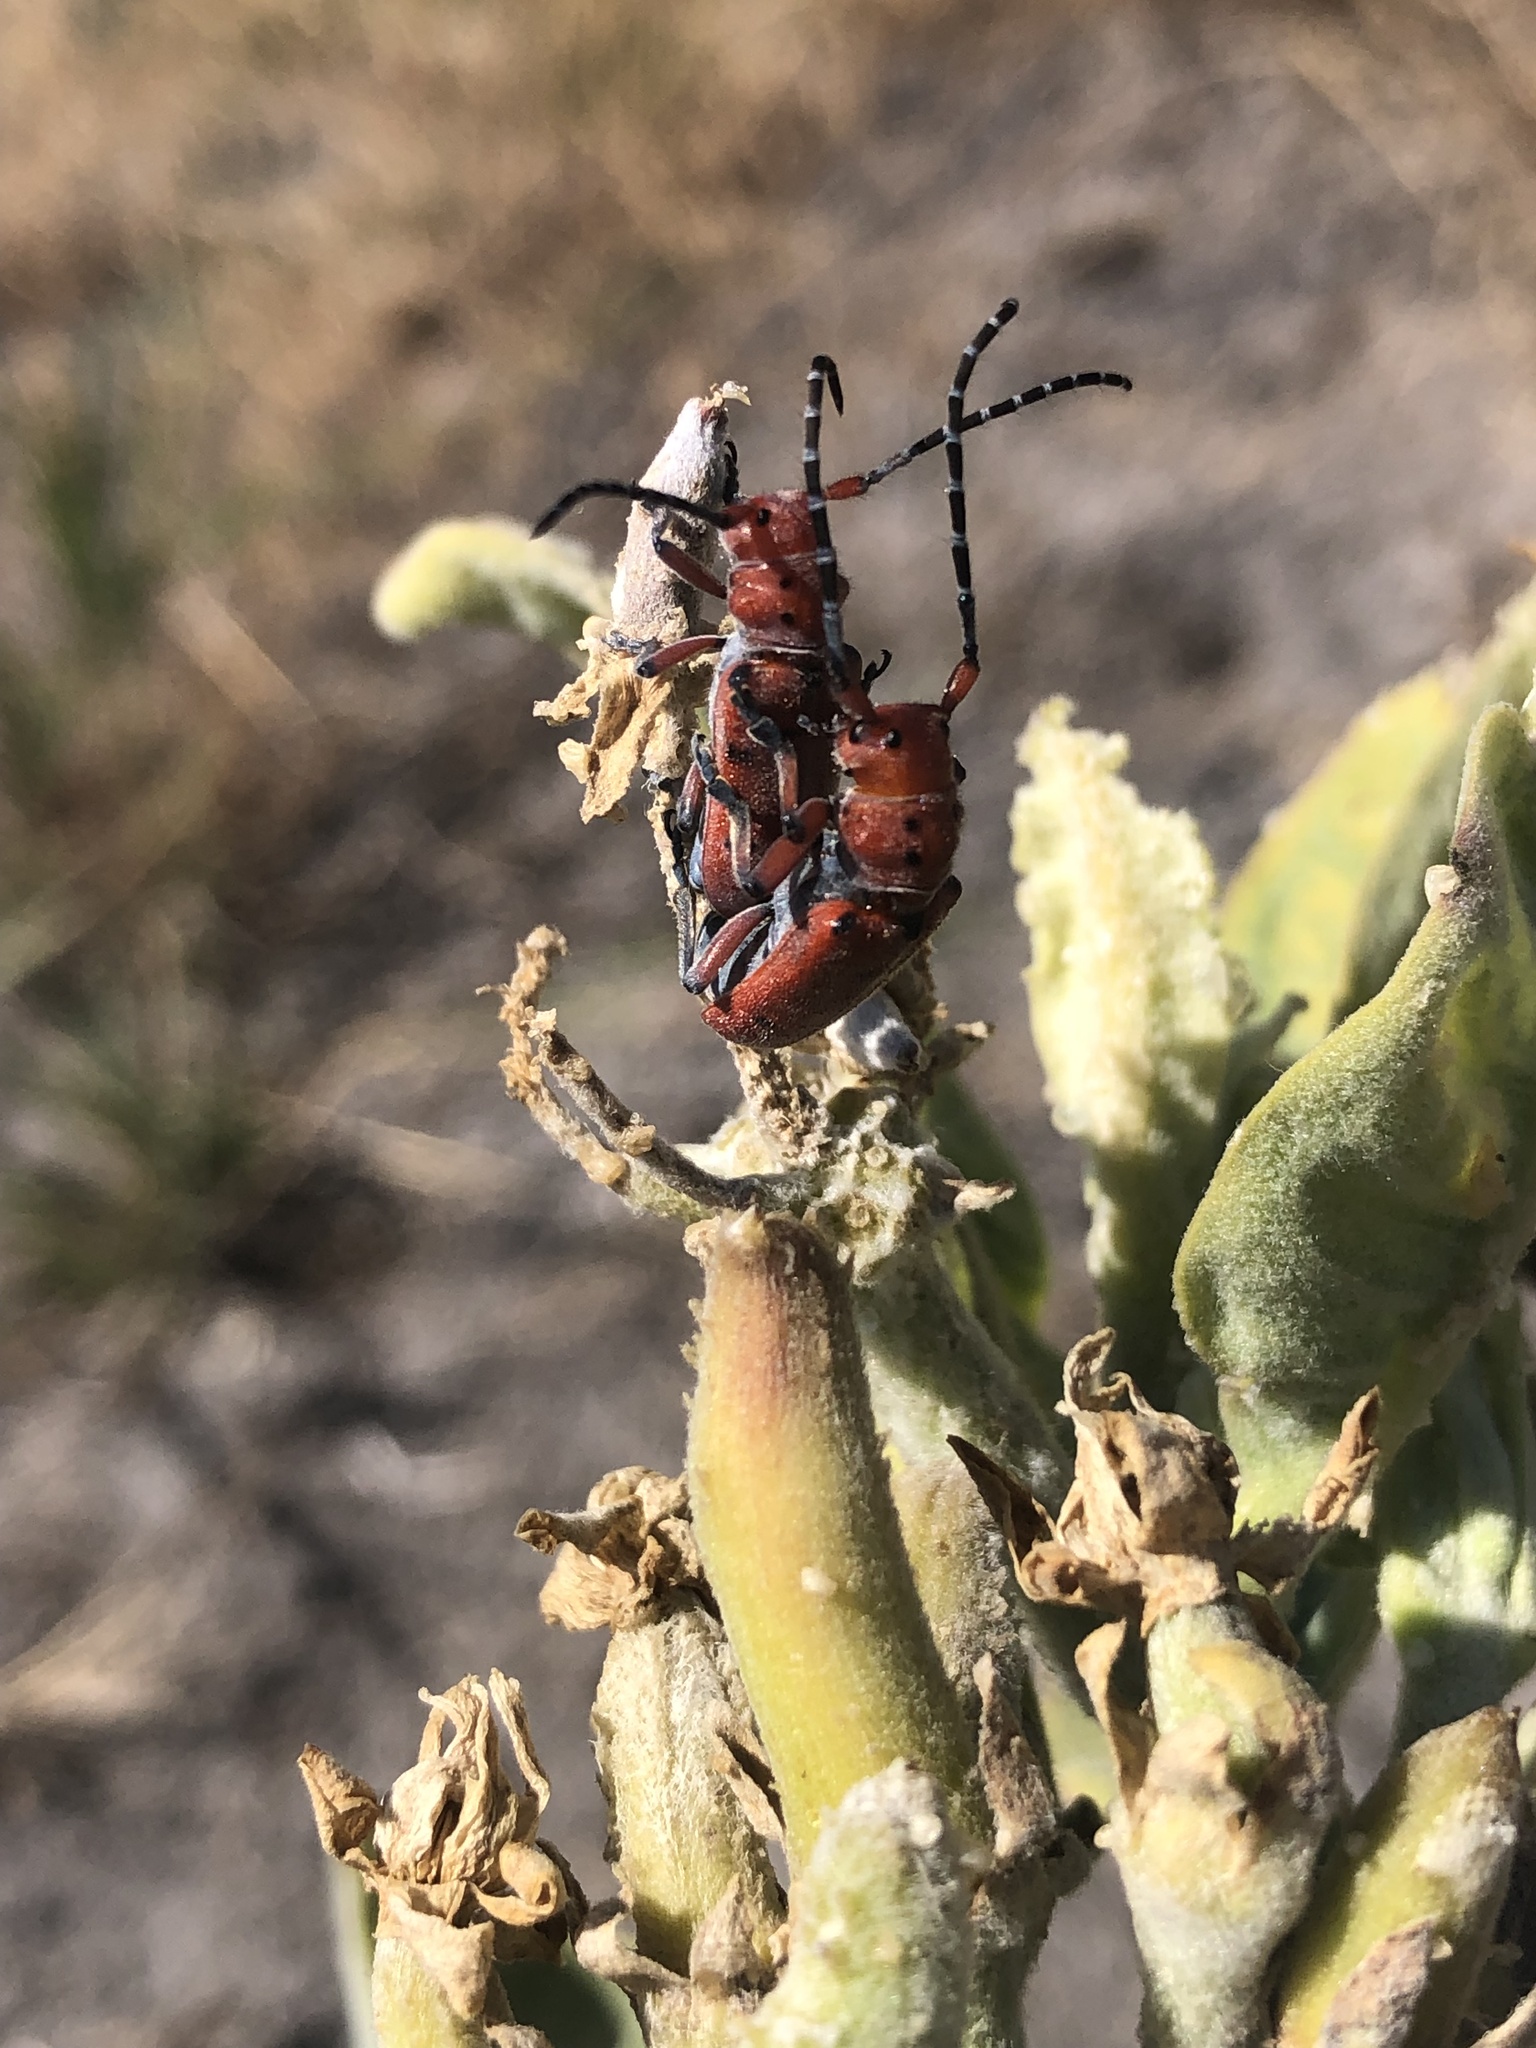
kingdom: Animalia
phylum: Arthropoda
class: Insecta
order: Coleoptera
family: Cerambycidae
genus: Tetraopes
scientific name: Tetraopes femoratus
